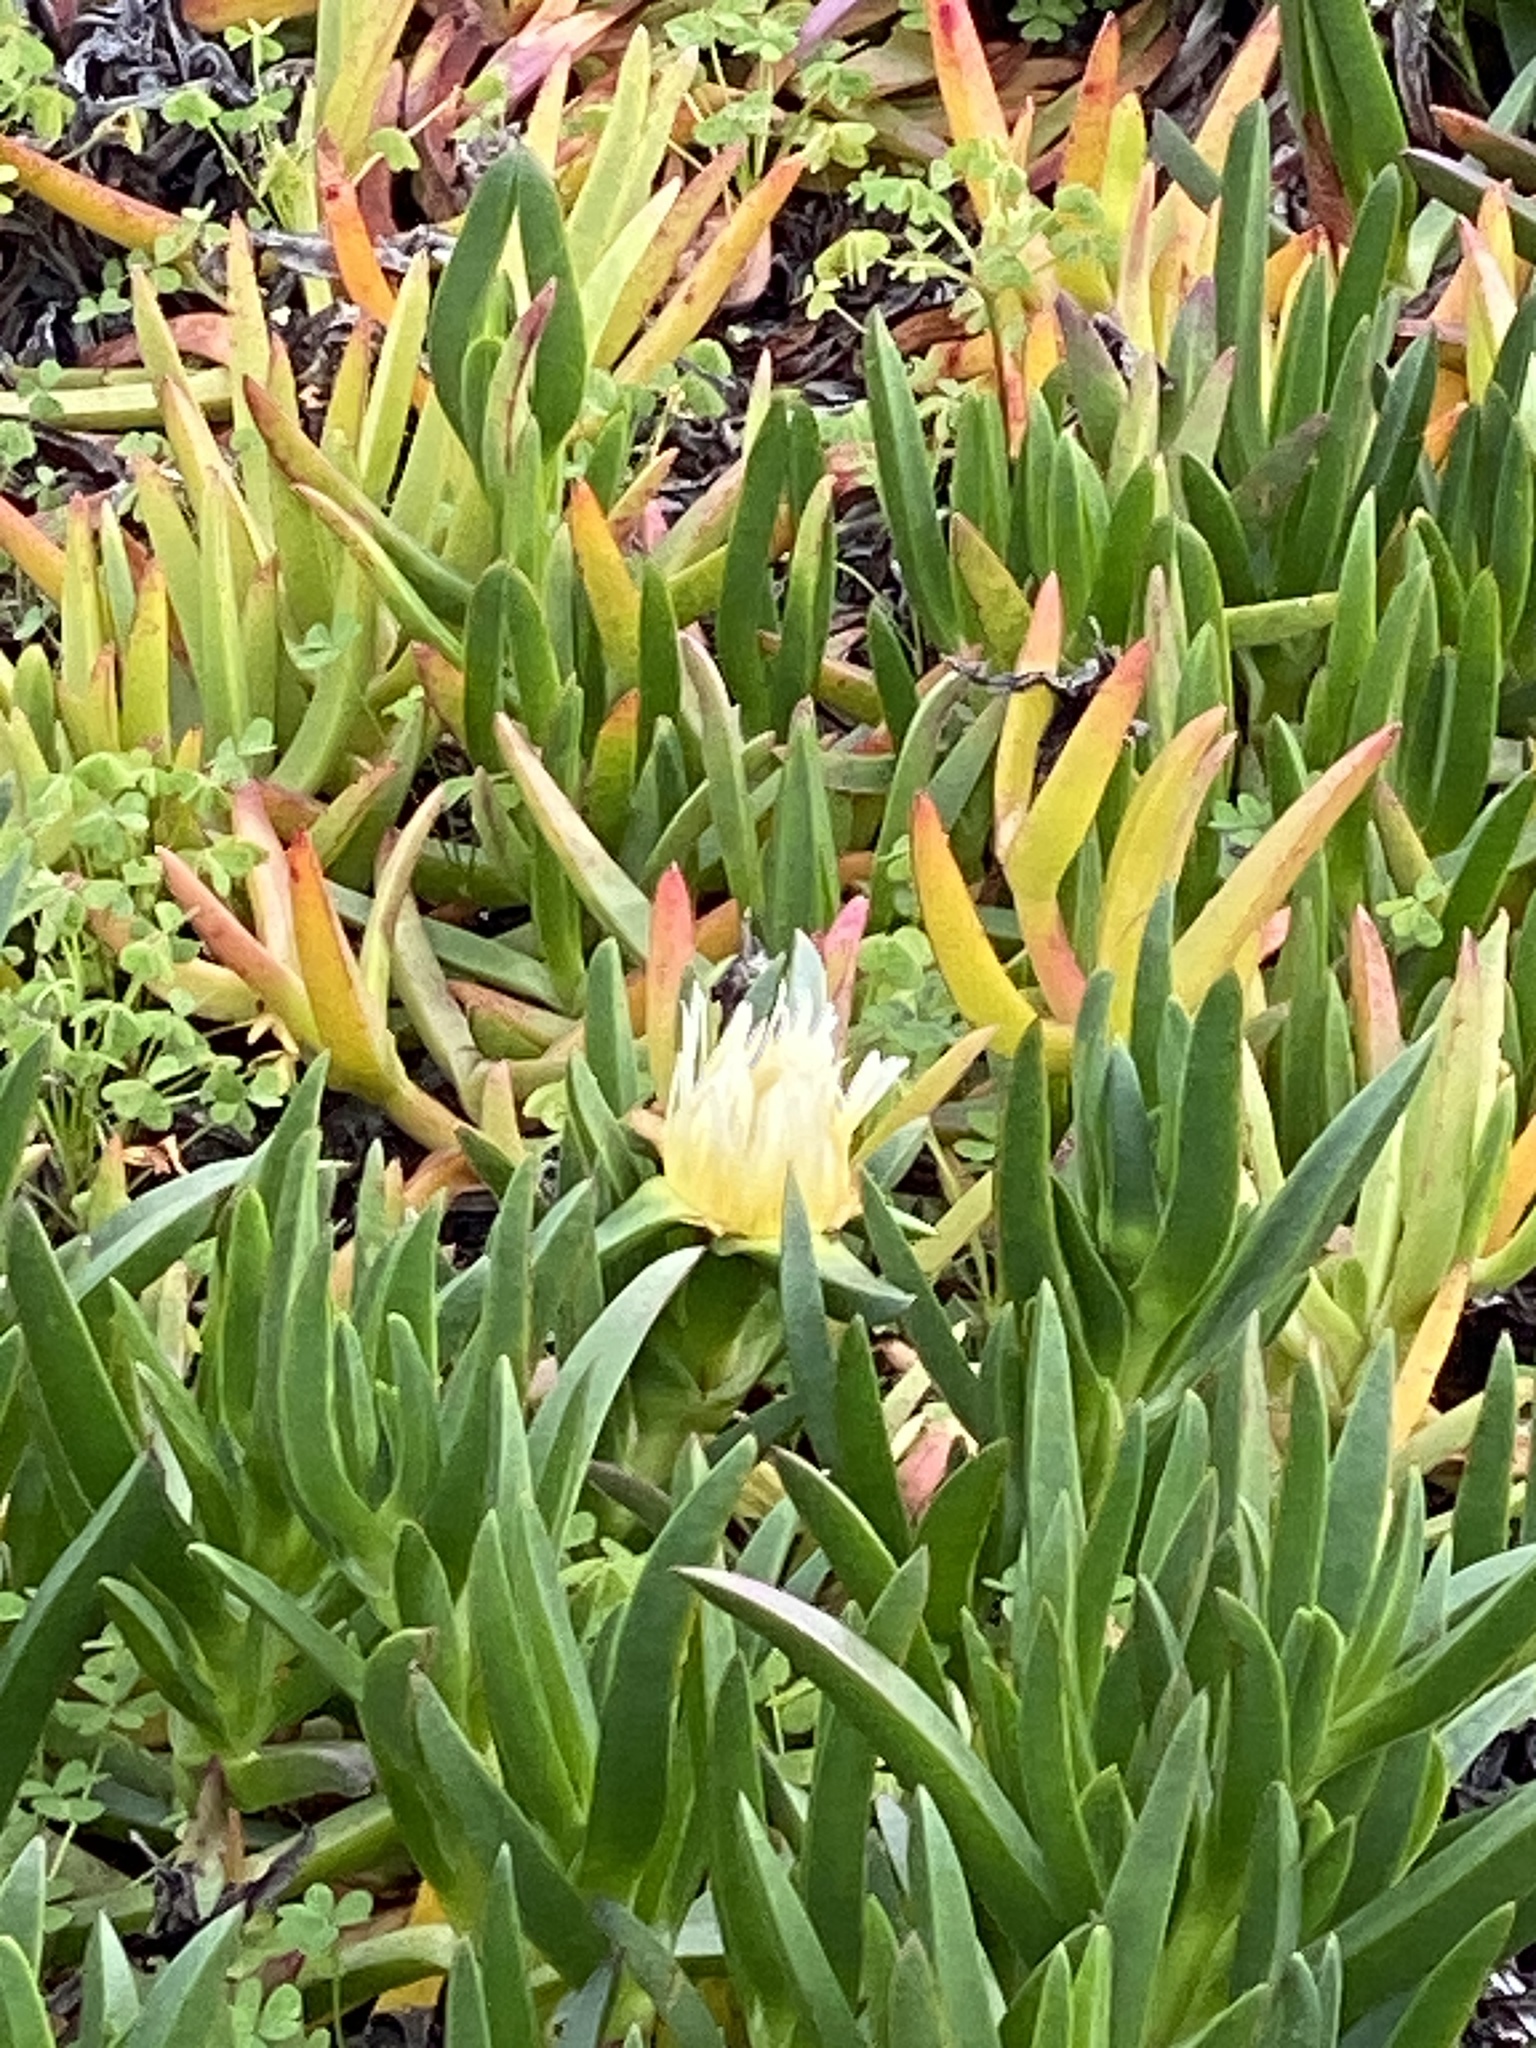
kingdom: Plantae
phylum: Tracheophyta
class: Magnoliopsida
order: Caryophyllales
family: Aizoaceae
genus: Carpobrotus
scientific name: Carpobrotus edulis
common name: Hottentot-fig
